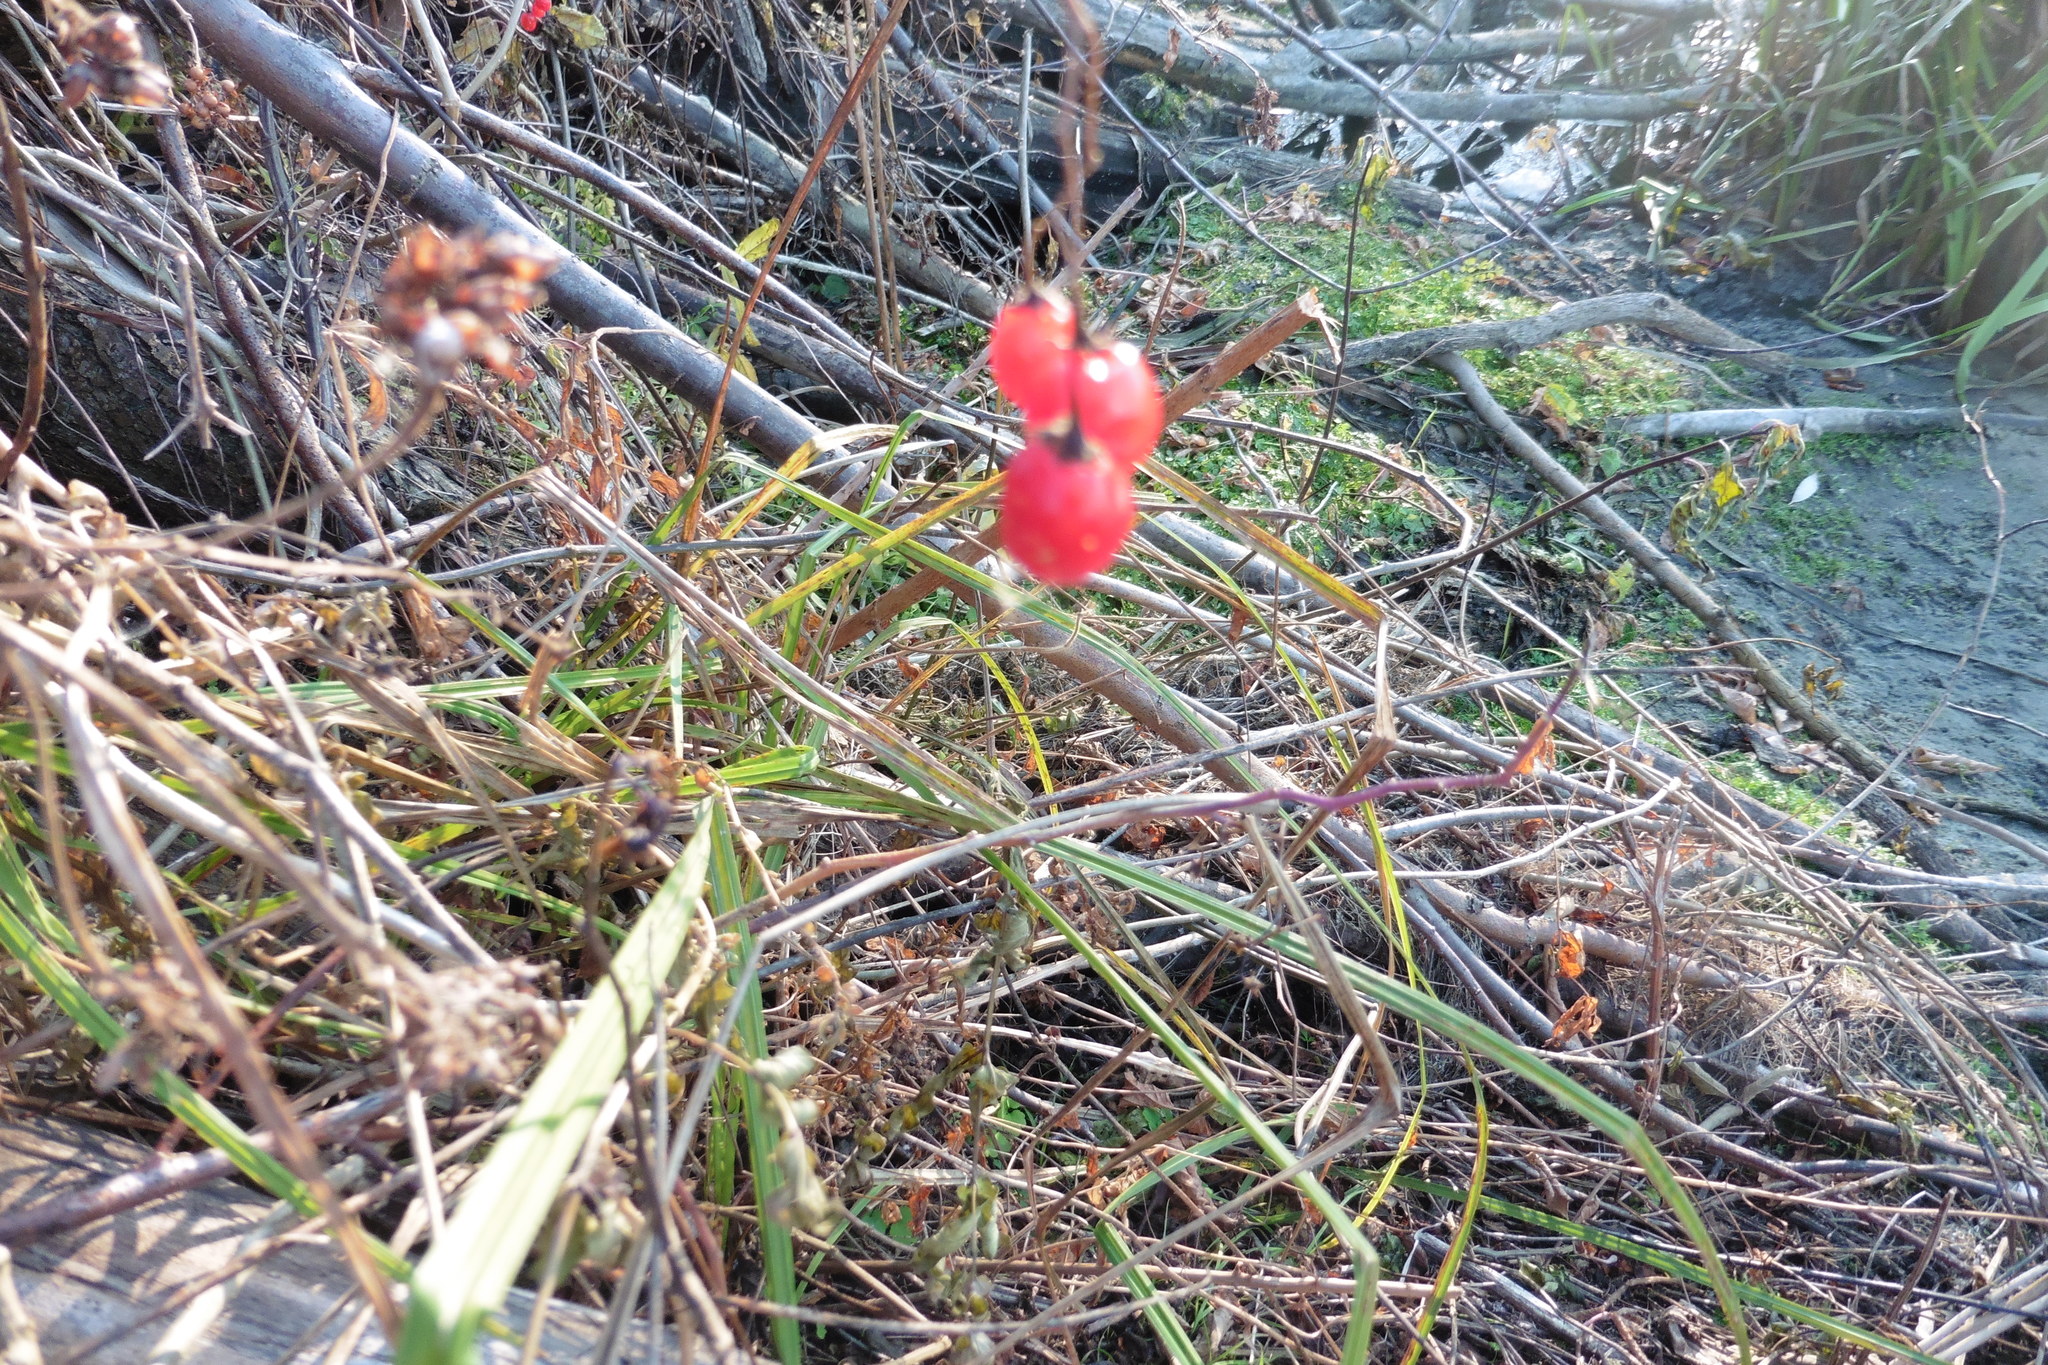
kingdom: Plantae
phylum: Tracheophyta
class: Magnoliopsida
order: Solanales
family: Solanaceae
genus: Solanum
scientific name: Solanum dulcamara
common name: Climbing nightshade
